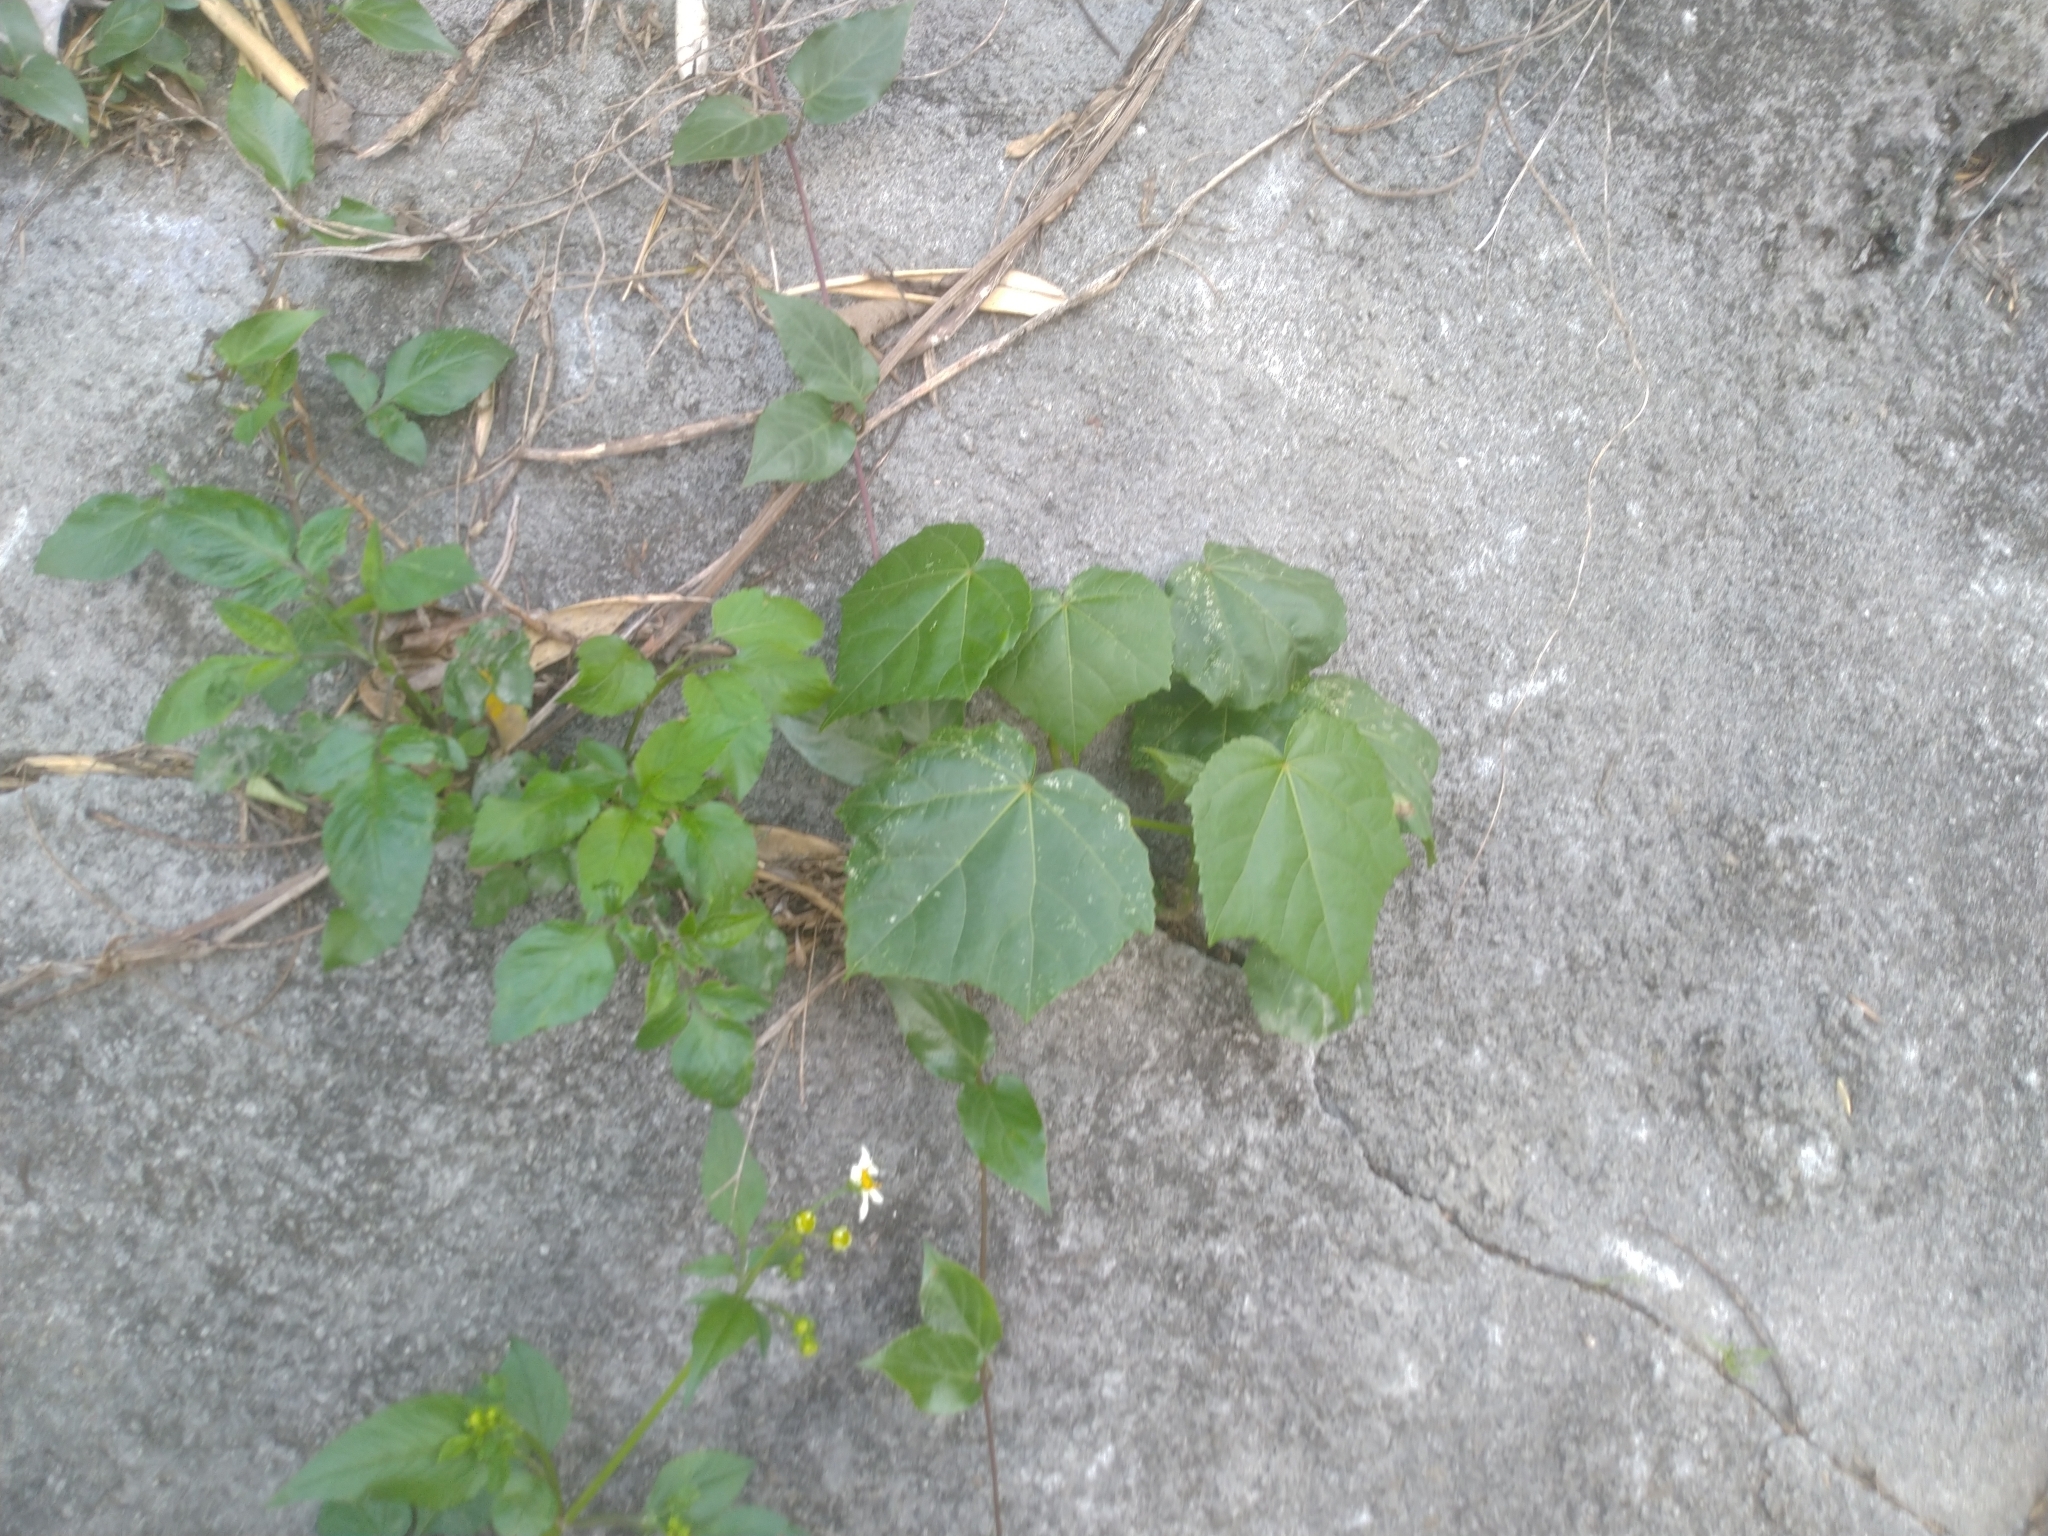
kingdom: Plantae
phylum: Tracheophyta
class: Magnoliopsida
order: Malvales
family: Malvaceae
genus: Hibiscus
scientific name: Hibiscus taiwanensis
